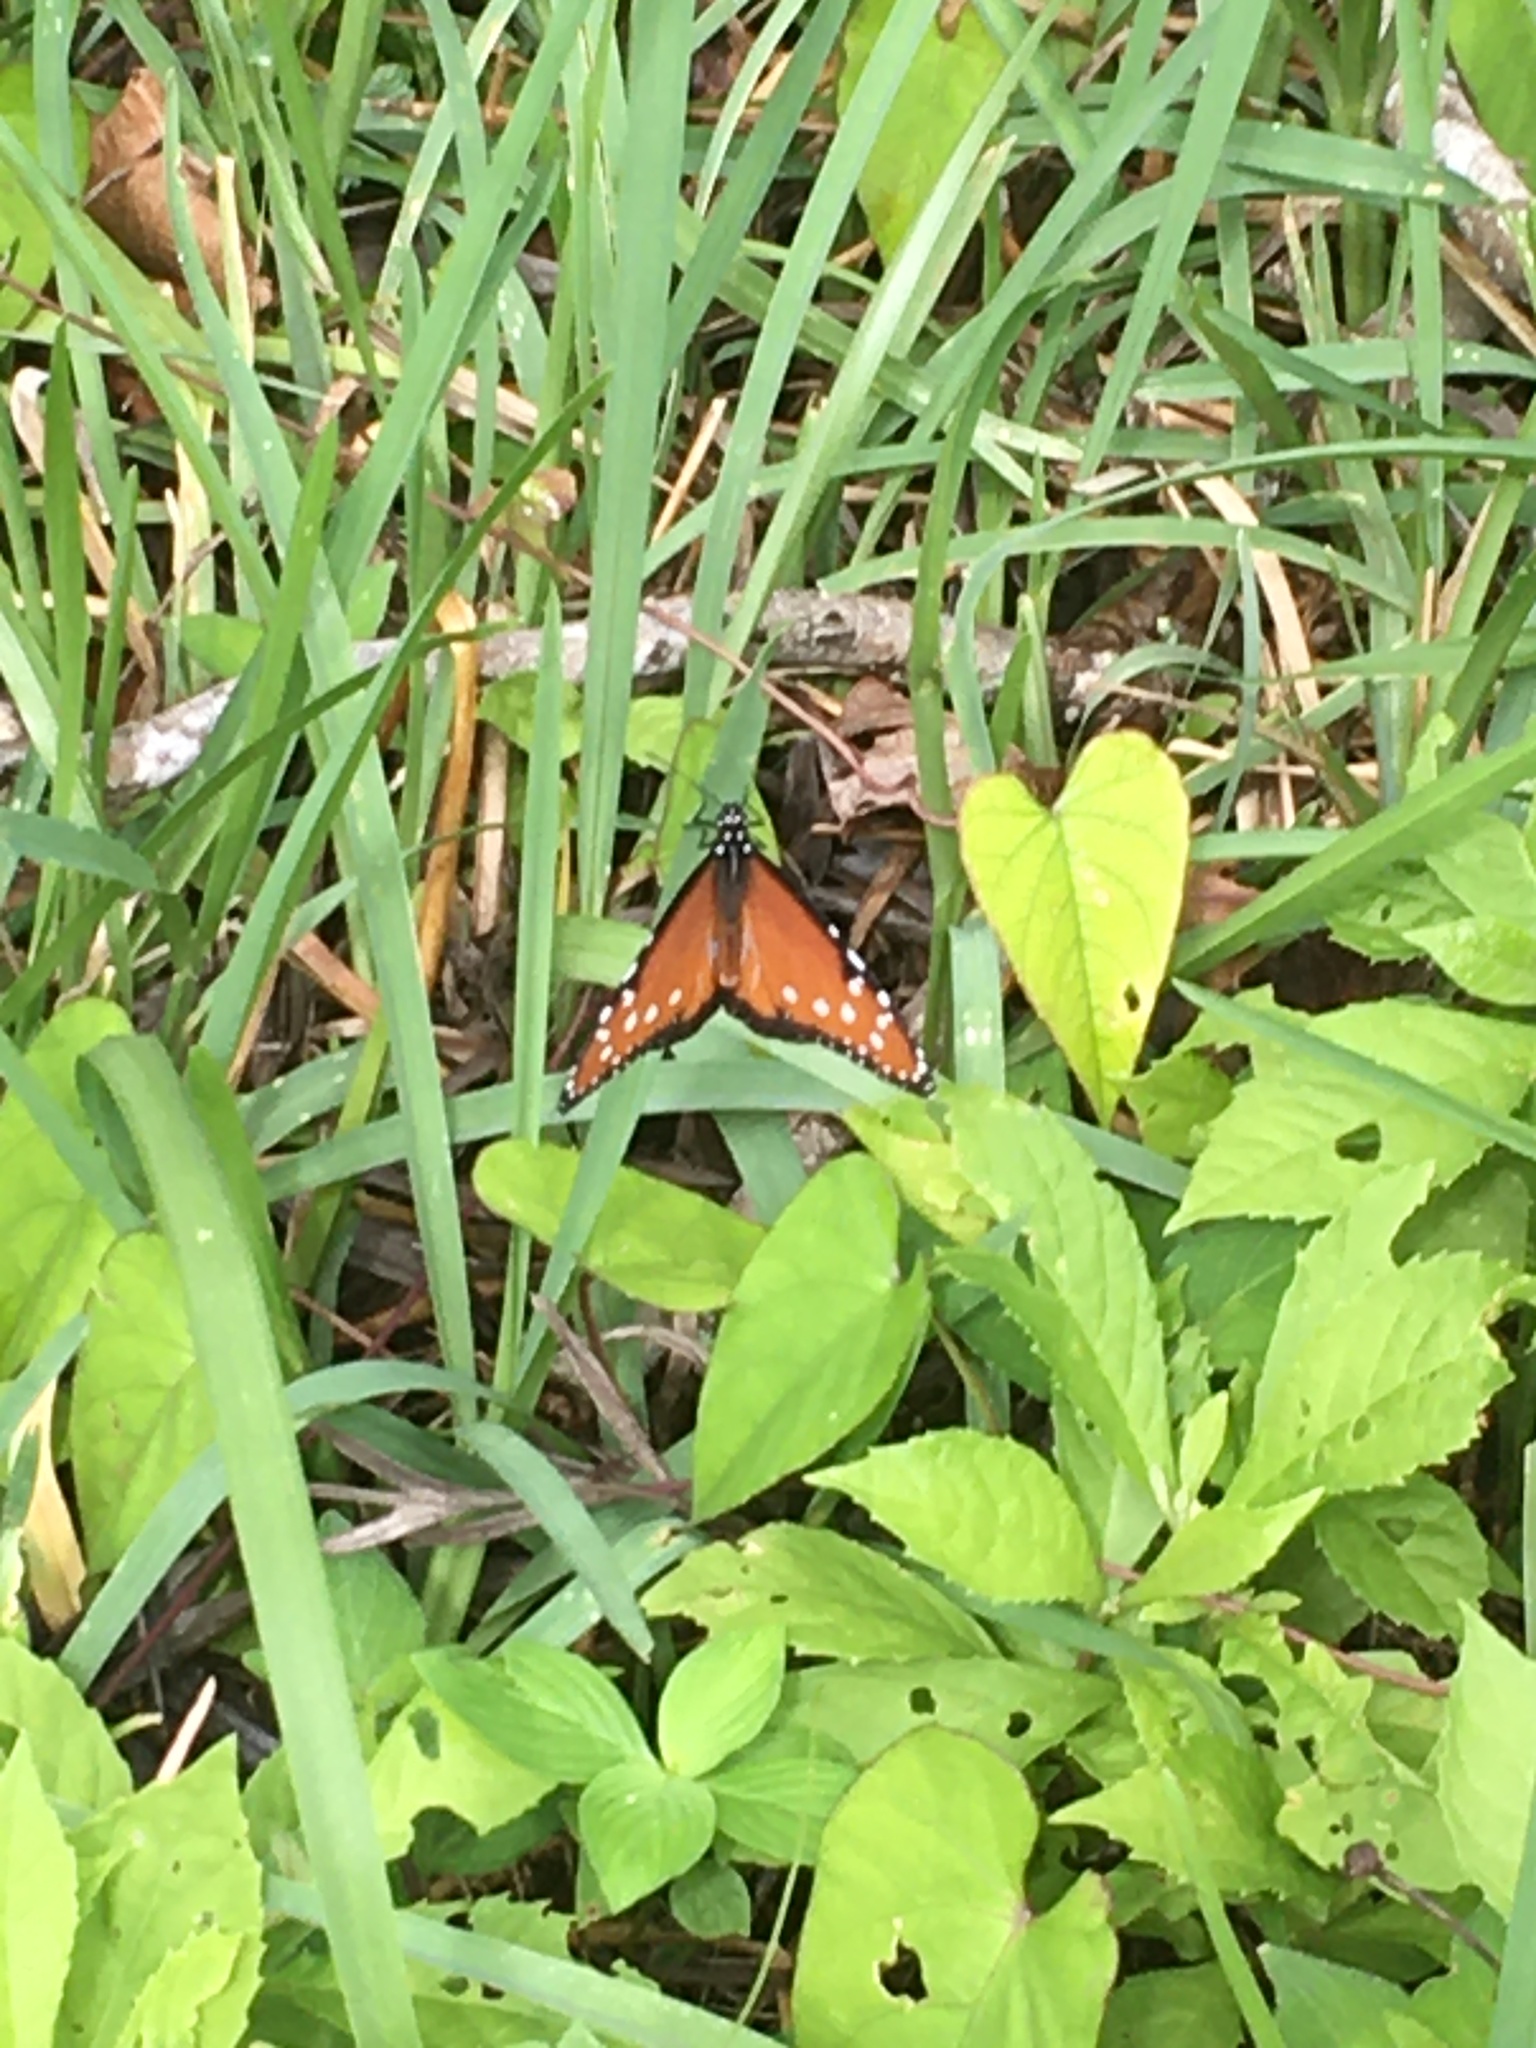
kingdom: Animalia
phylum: Arthropoda
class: Insecta
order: Lepidoptera
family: Nymphalidae
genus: Danaus
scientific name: Danaus gilippus
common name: Queen
